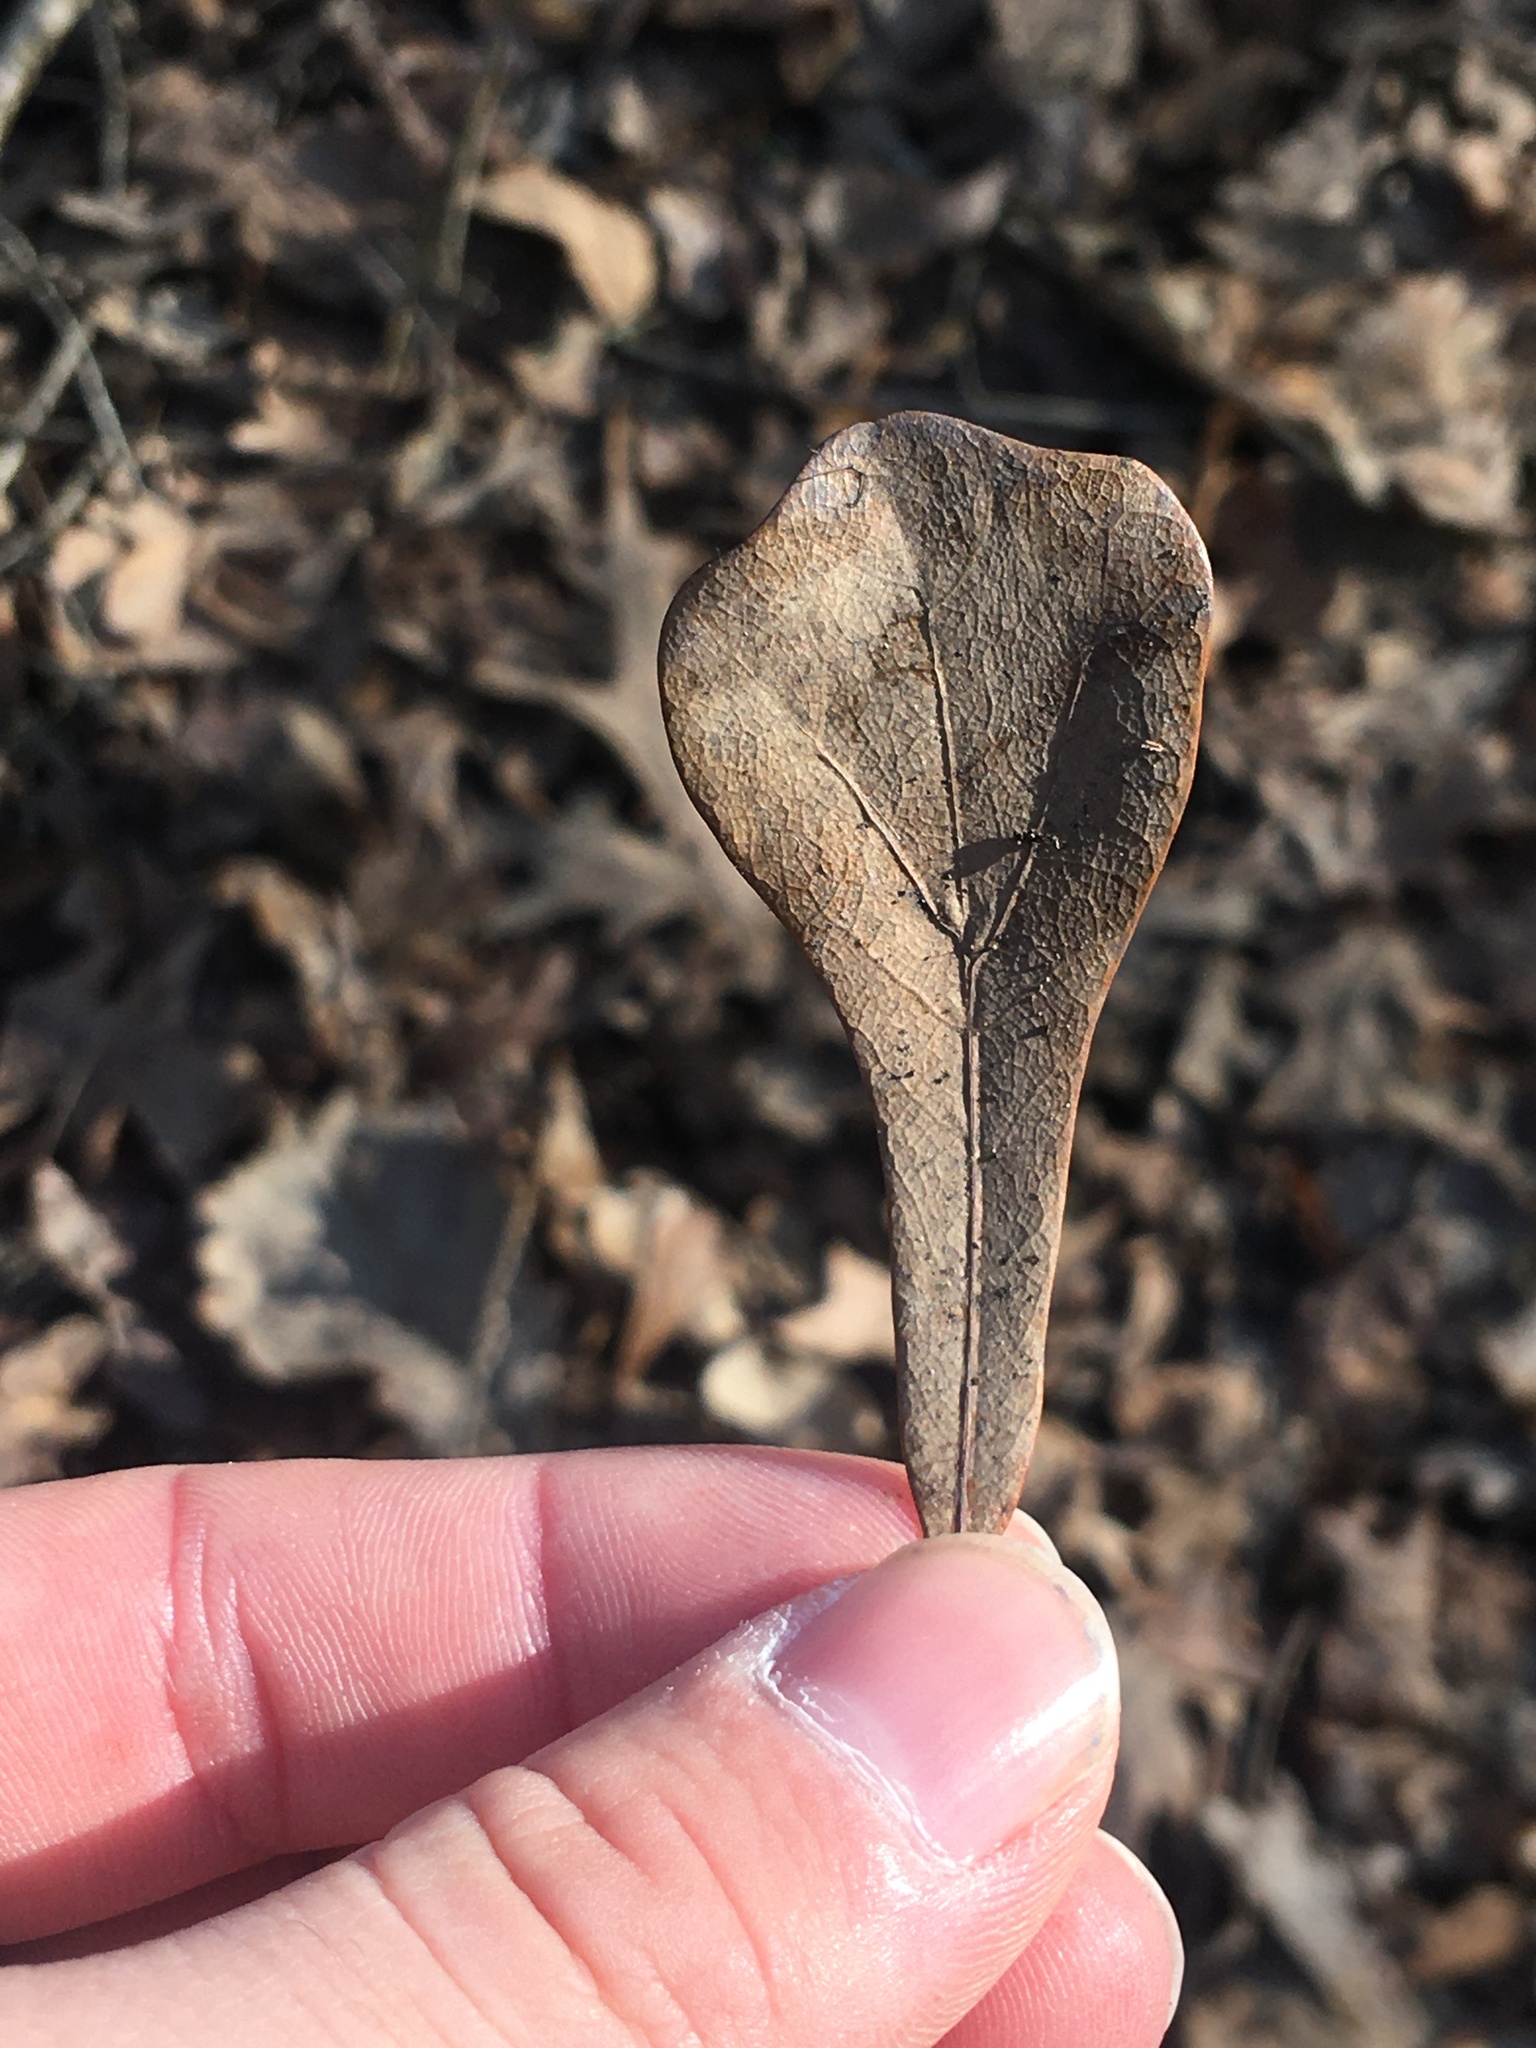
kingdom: Plantae
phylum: Tracheophyta
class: Magnoliopsida
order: Fagales
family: Fagaceae
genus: Quercus
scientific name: Quercus nigra
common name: Water oak
